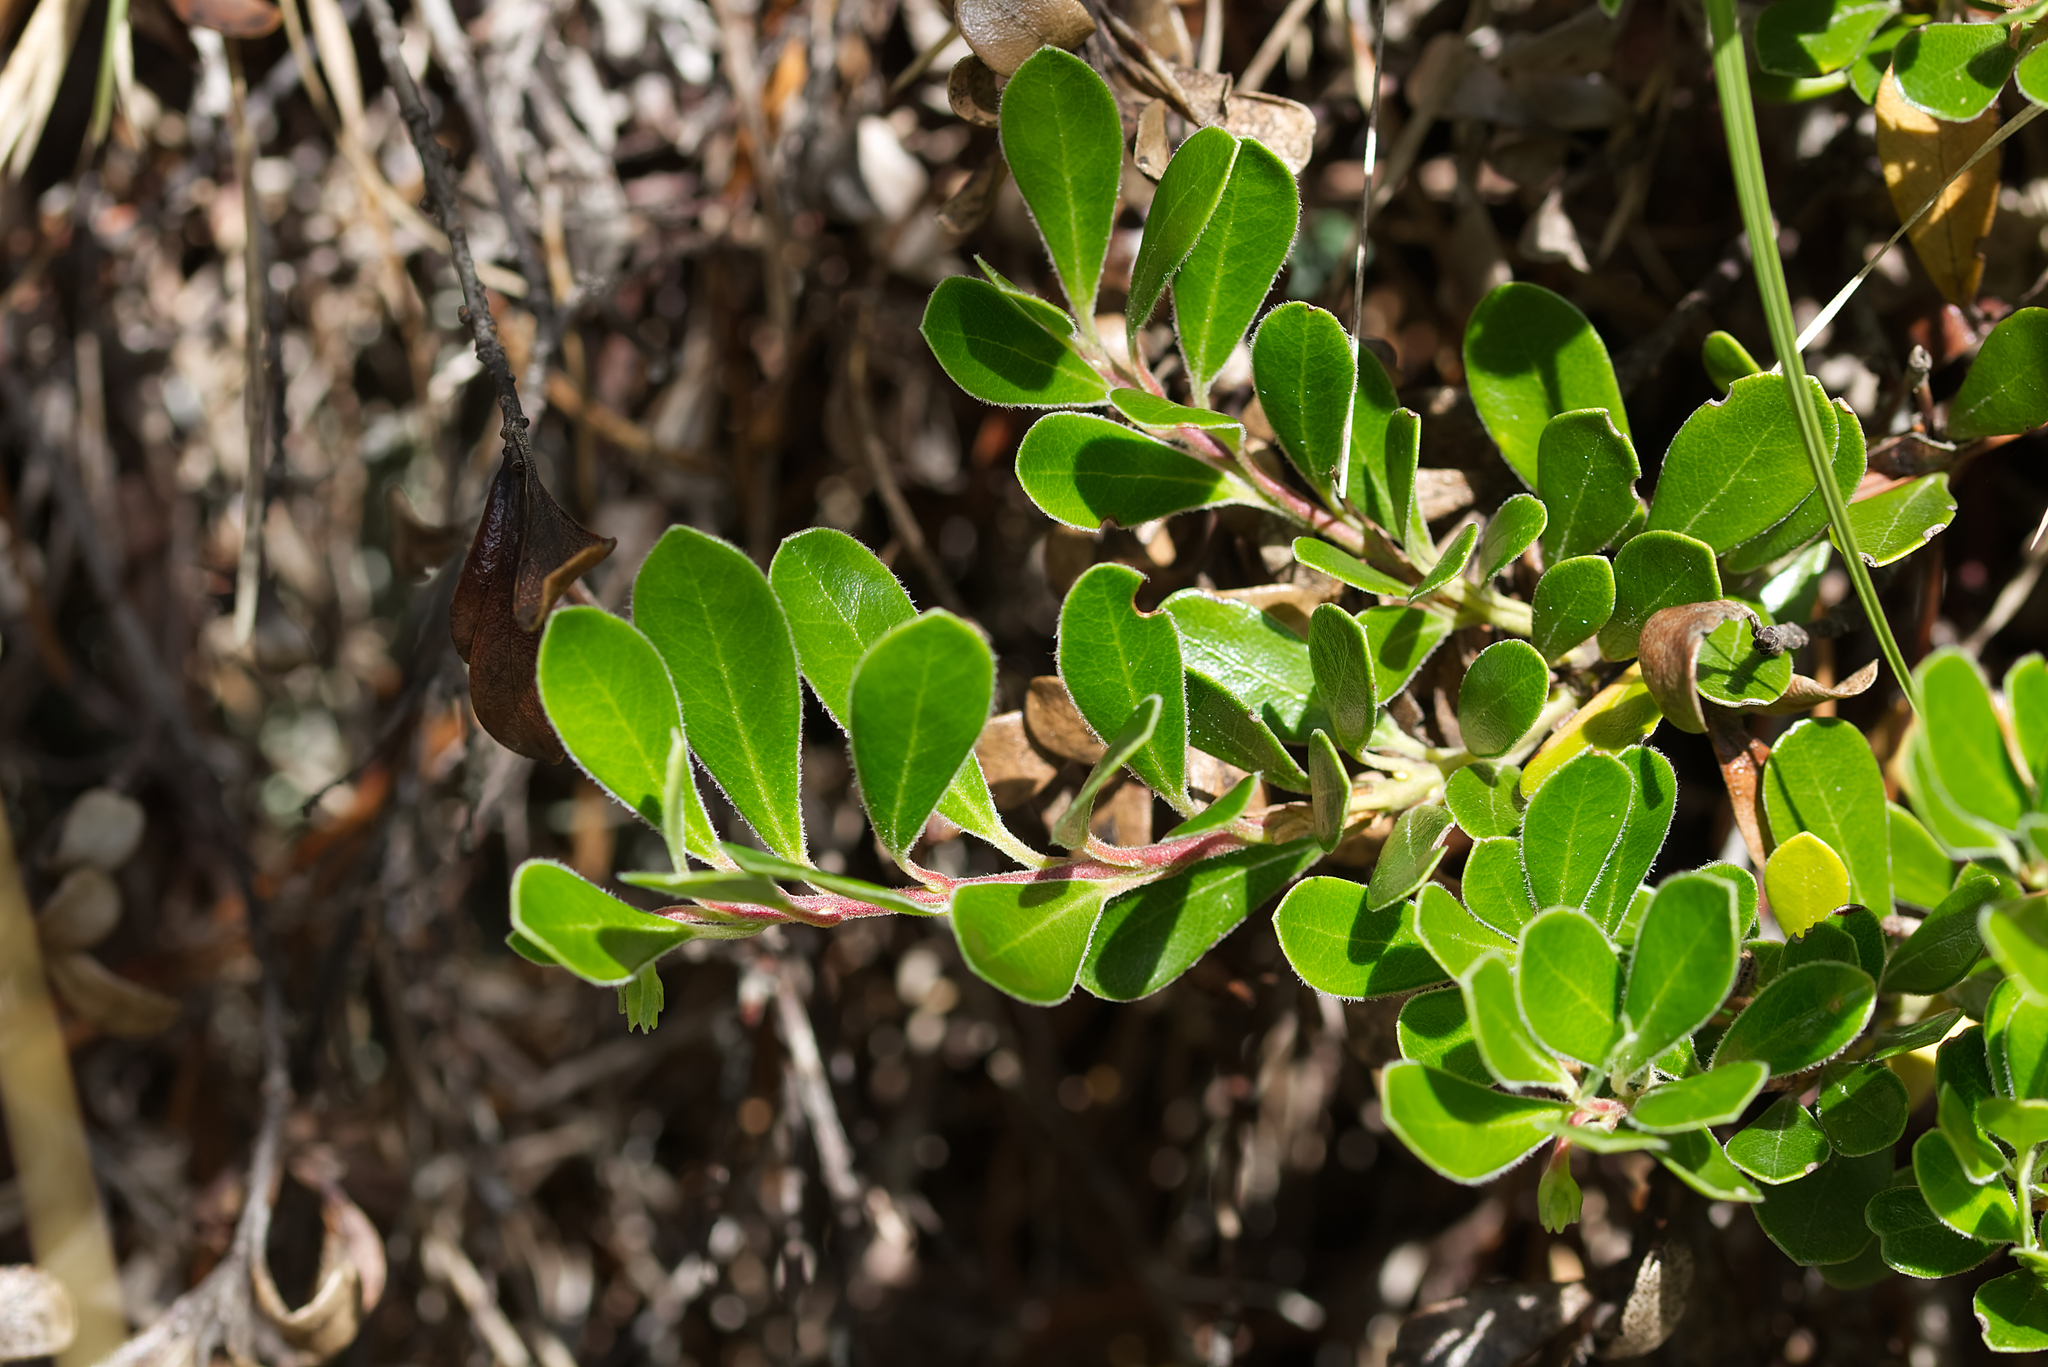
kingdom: Plantae
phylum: Tracheophyta
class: Magnoliopsida
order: Ericales
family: Ericaceae
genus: Arctostaphylos
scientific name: Arctostaphylos uva-ursi
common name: Bearberry
